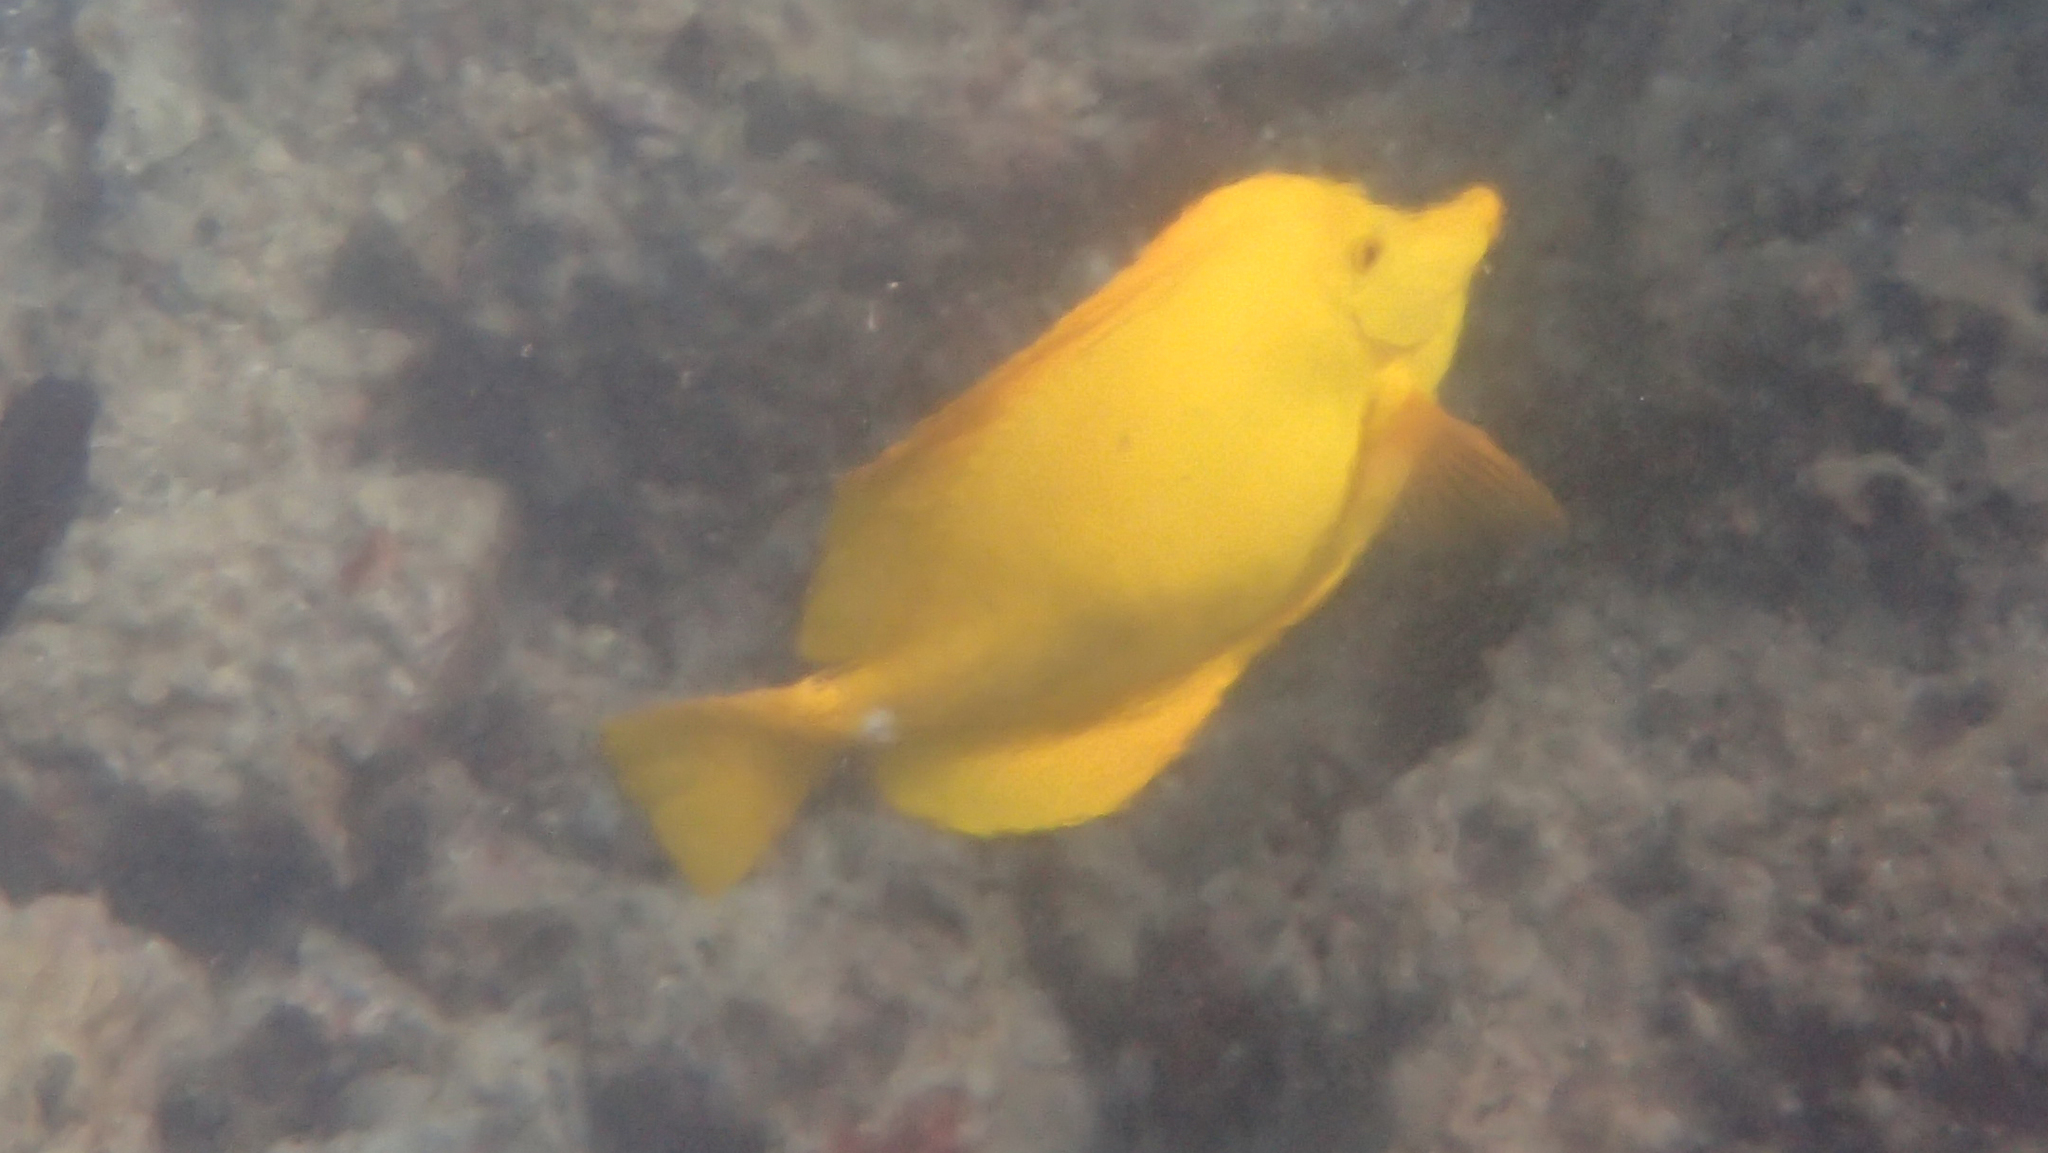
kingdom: Animalia
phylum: Chordata
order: Perciformes
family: Acanthuridae
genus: Zebrasoma
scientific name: Zebrasoma flavescens
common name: Yellow tang
